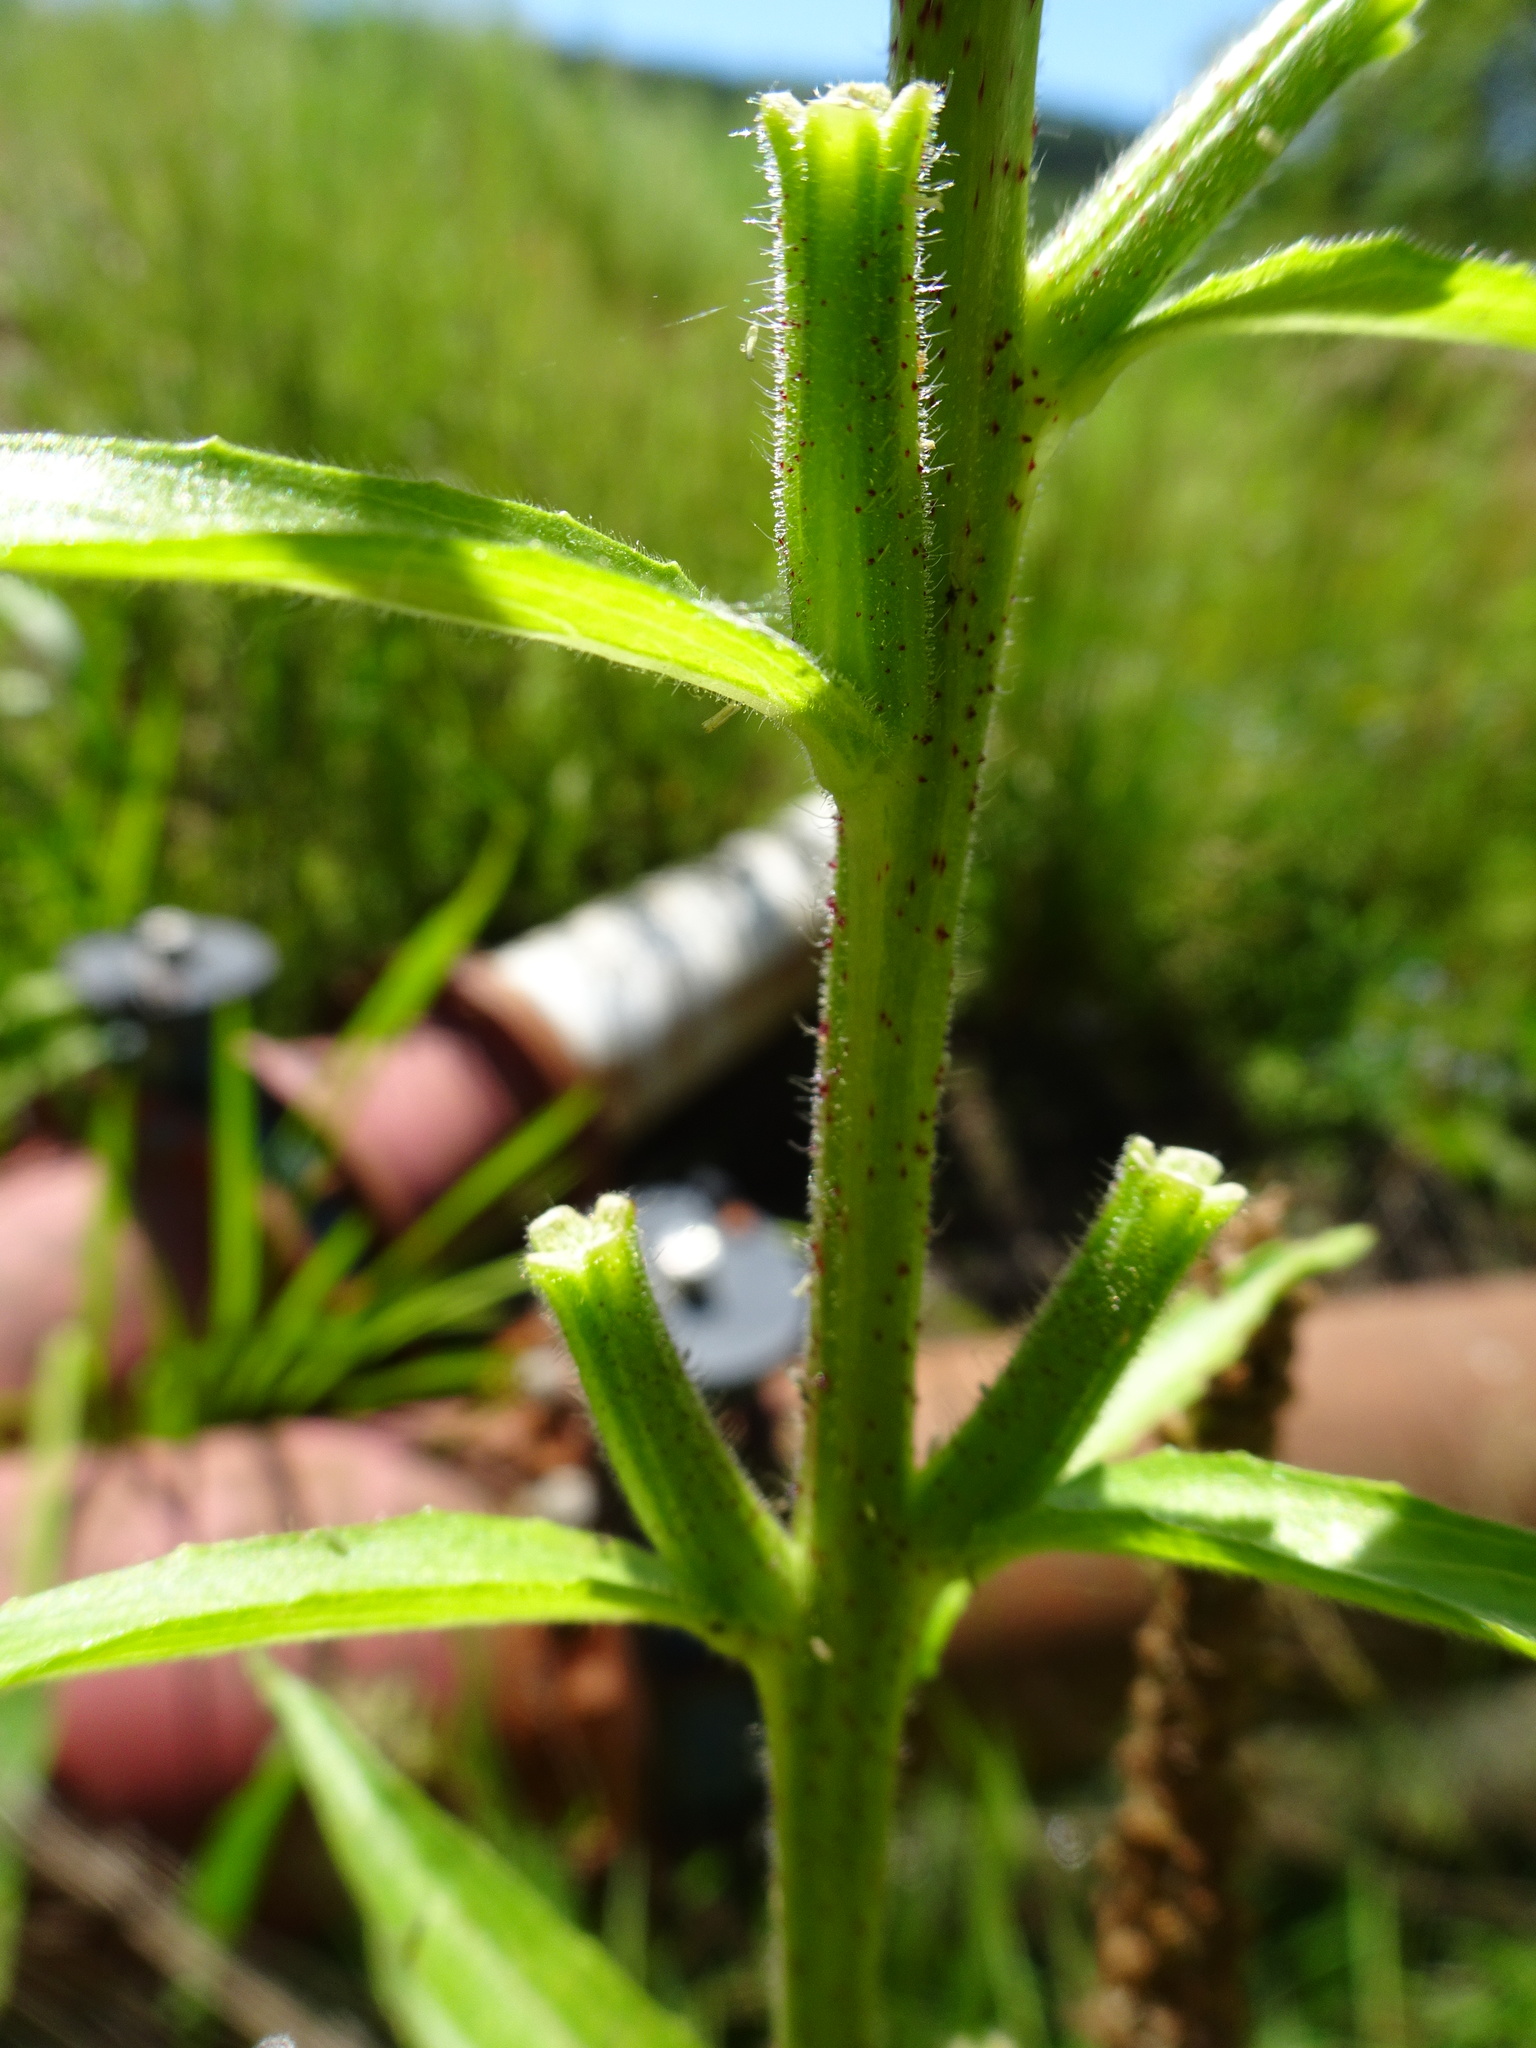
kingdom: Plantae
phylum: Tracheophyta
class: Magnoliopsida
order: Myrtales
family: Onagraceae
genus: Oenothera
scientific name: Oenothera glazioviana
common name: Large-flowered evening-primrose
